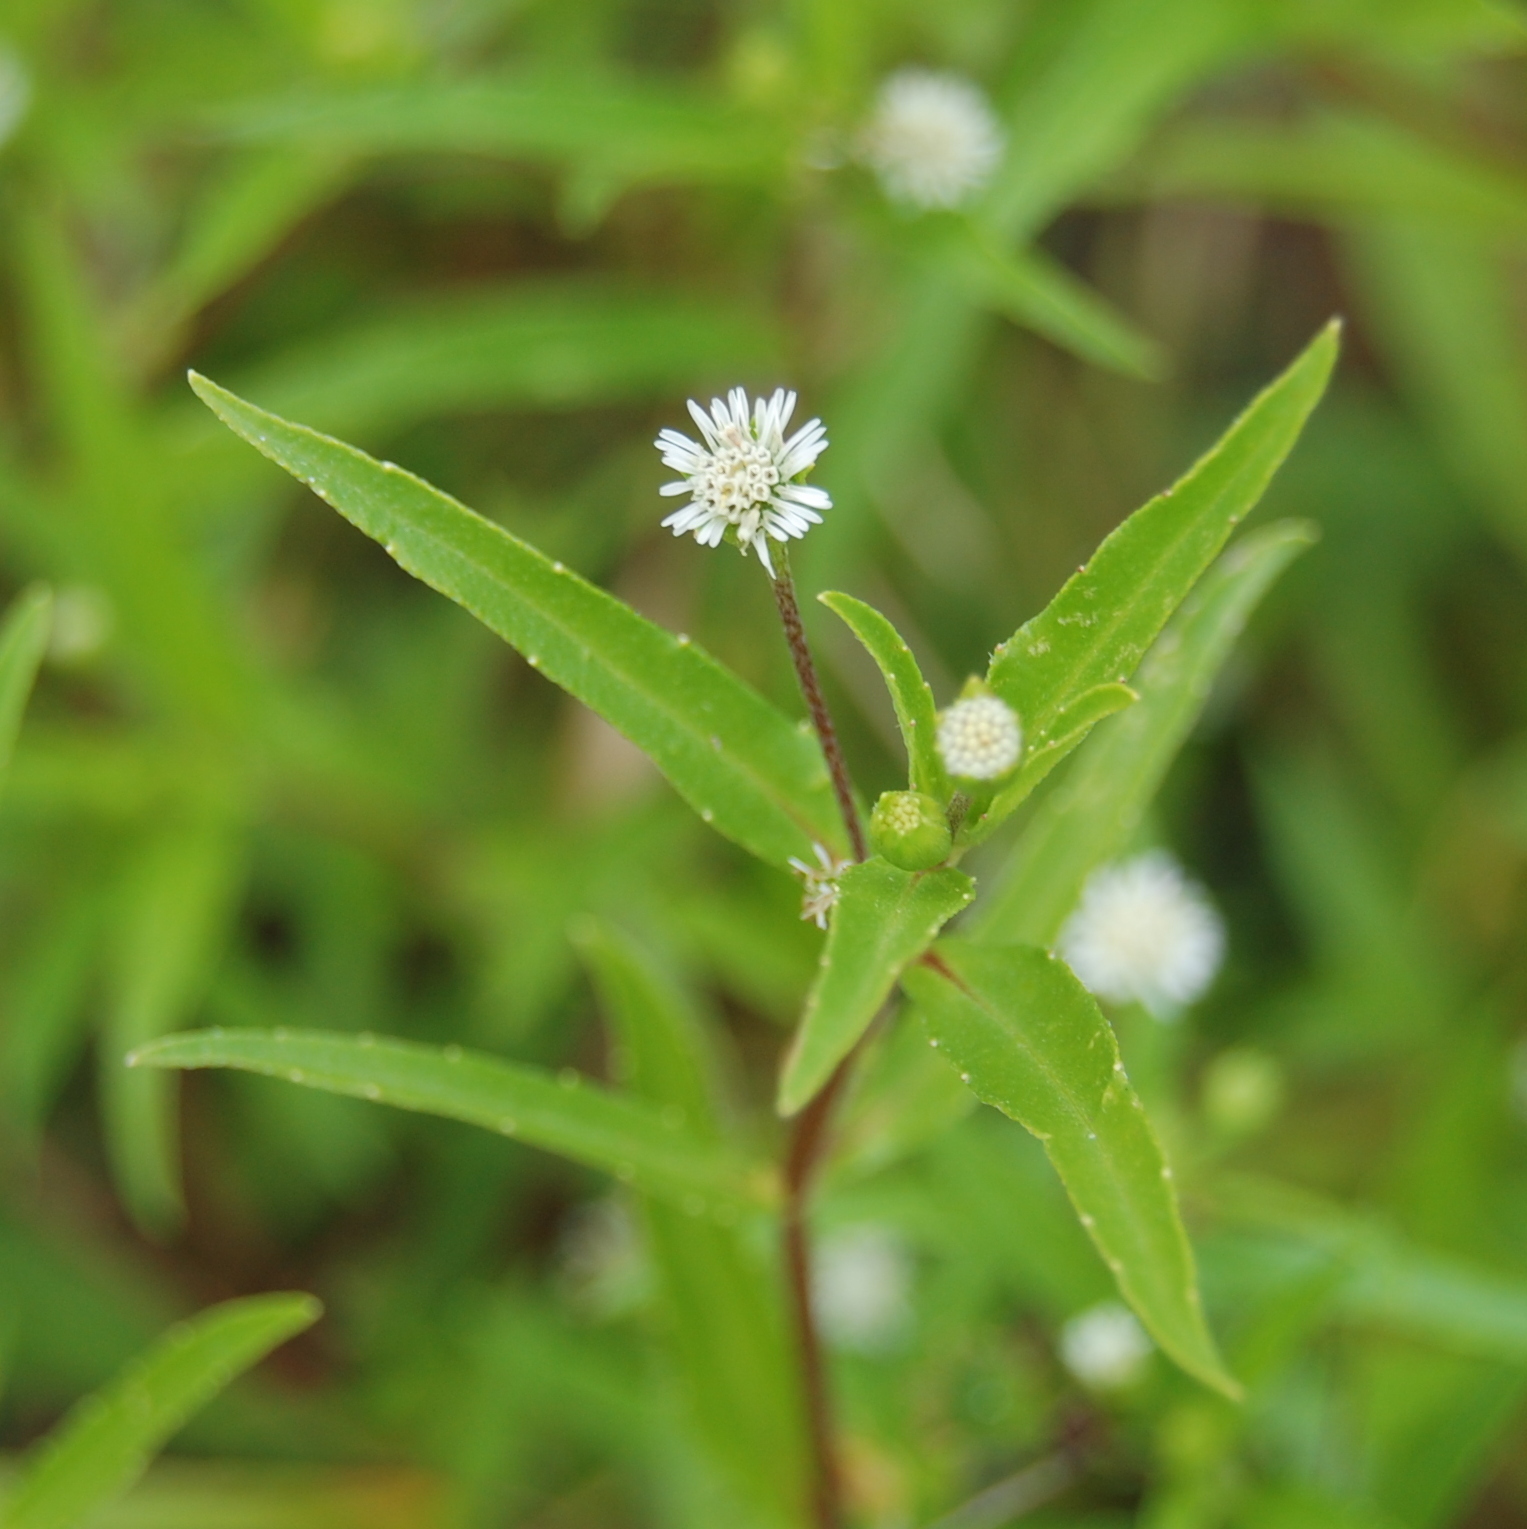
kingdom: Plantae
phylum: Tracheophyta
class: Magnoliopsida
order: Asterales
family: Asteraceae
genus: Eclipta
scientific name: Eclipta prostrata
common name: False daisy
